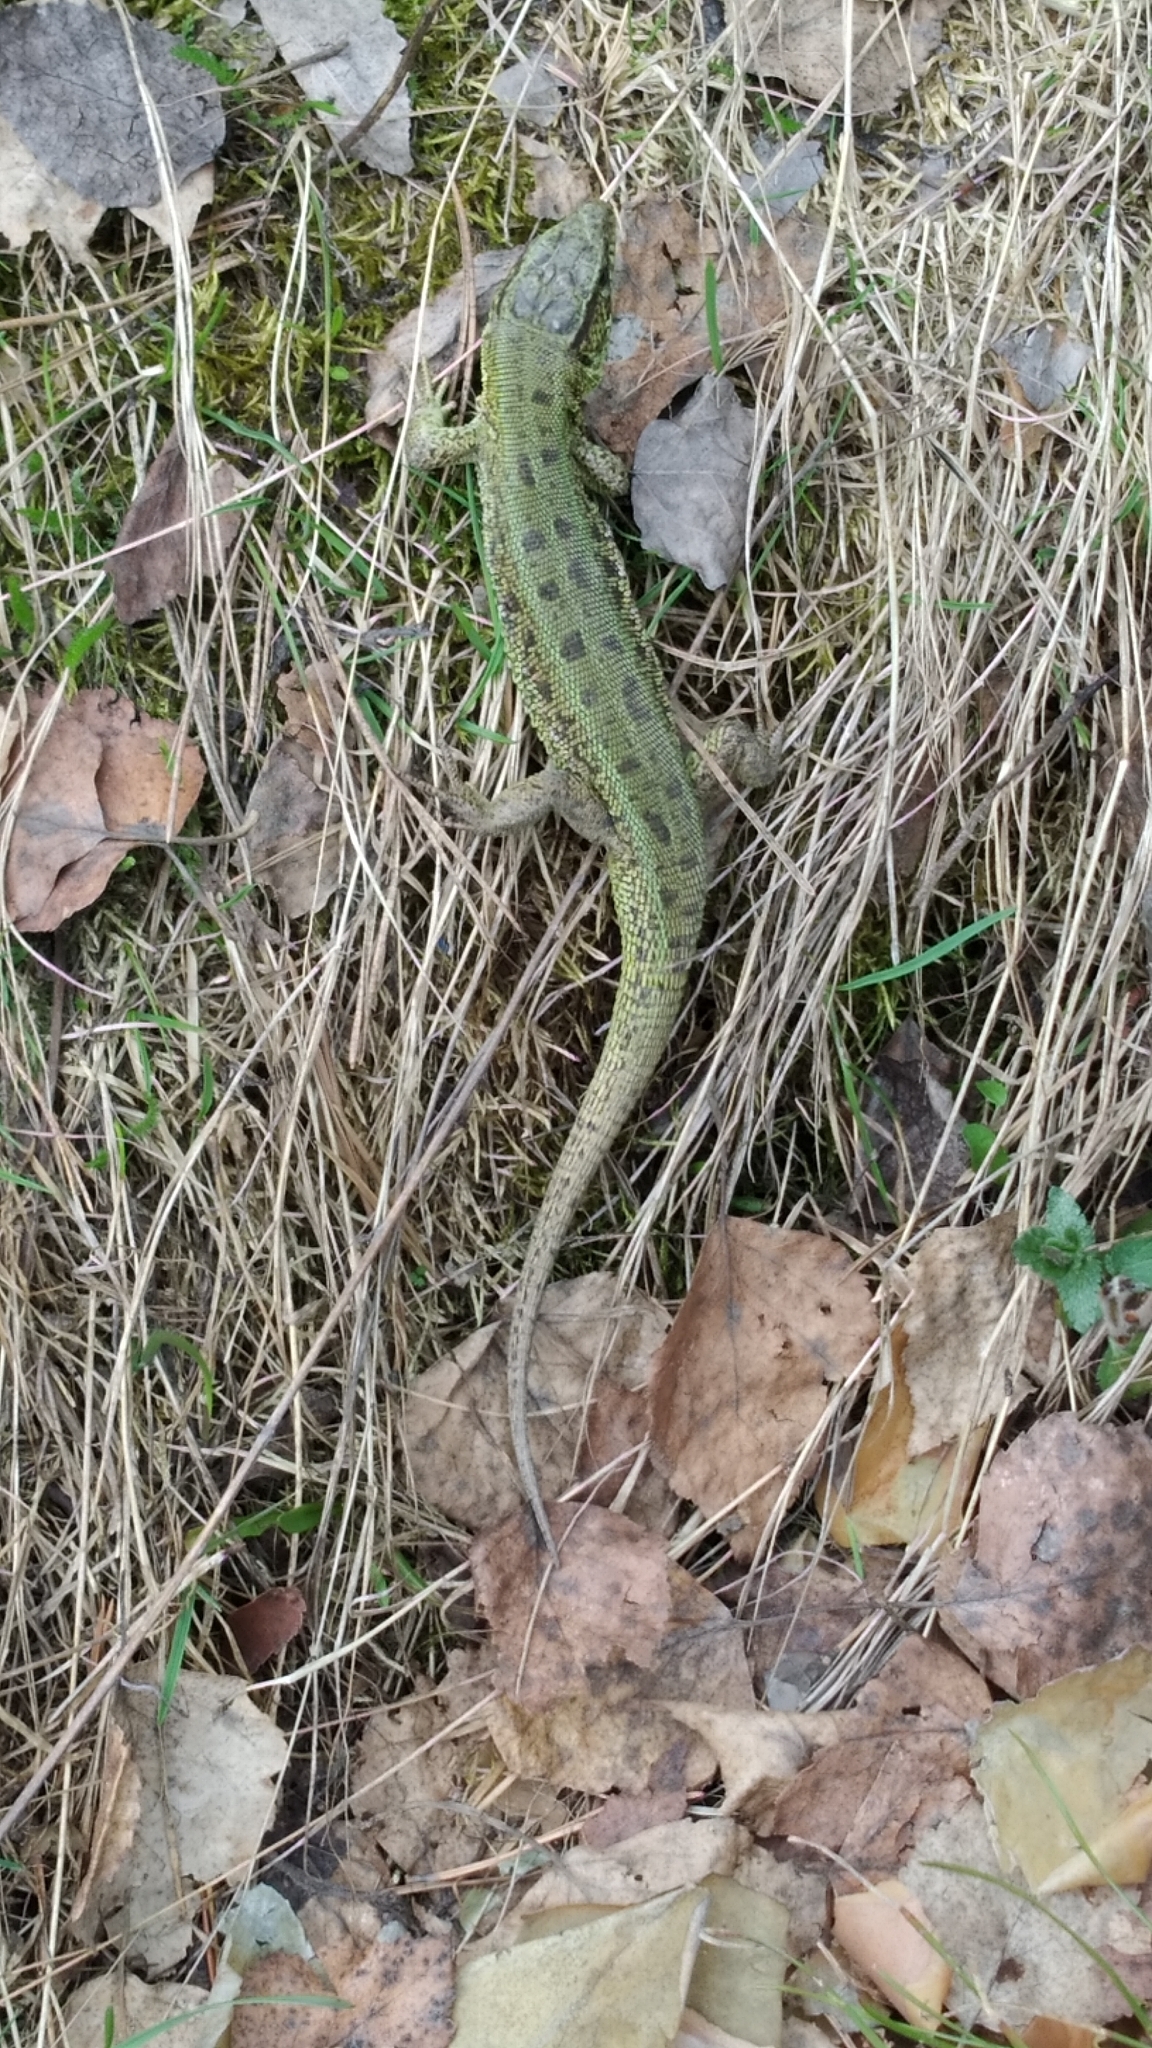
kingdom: Animalia
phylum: Chordata
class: Squamata
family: Lacertidae
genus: Lacerta
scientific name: Lacerta agilis
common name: Sand lizard
